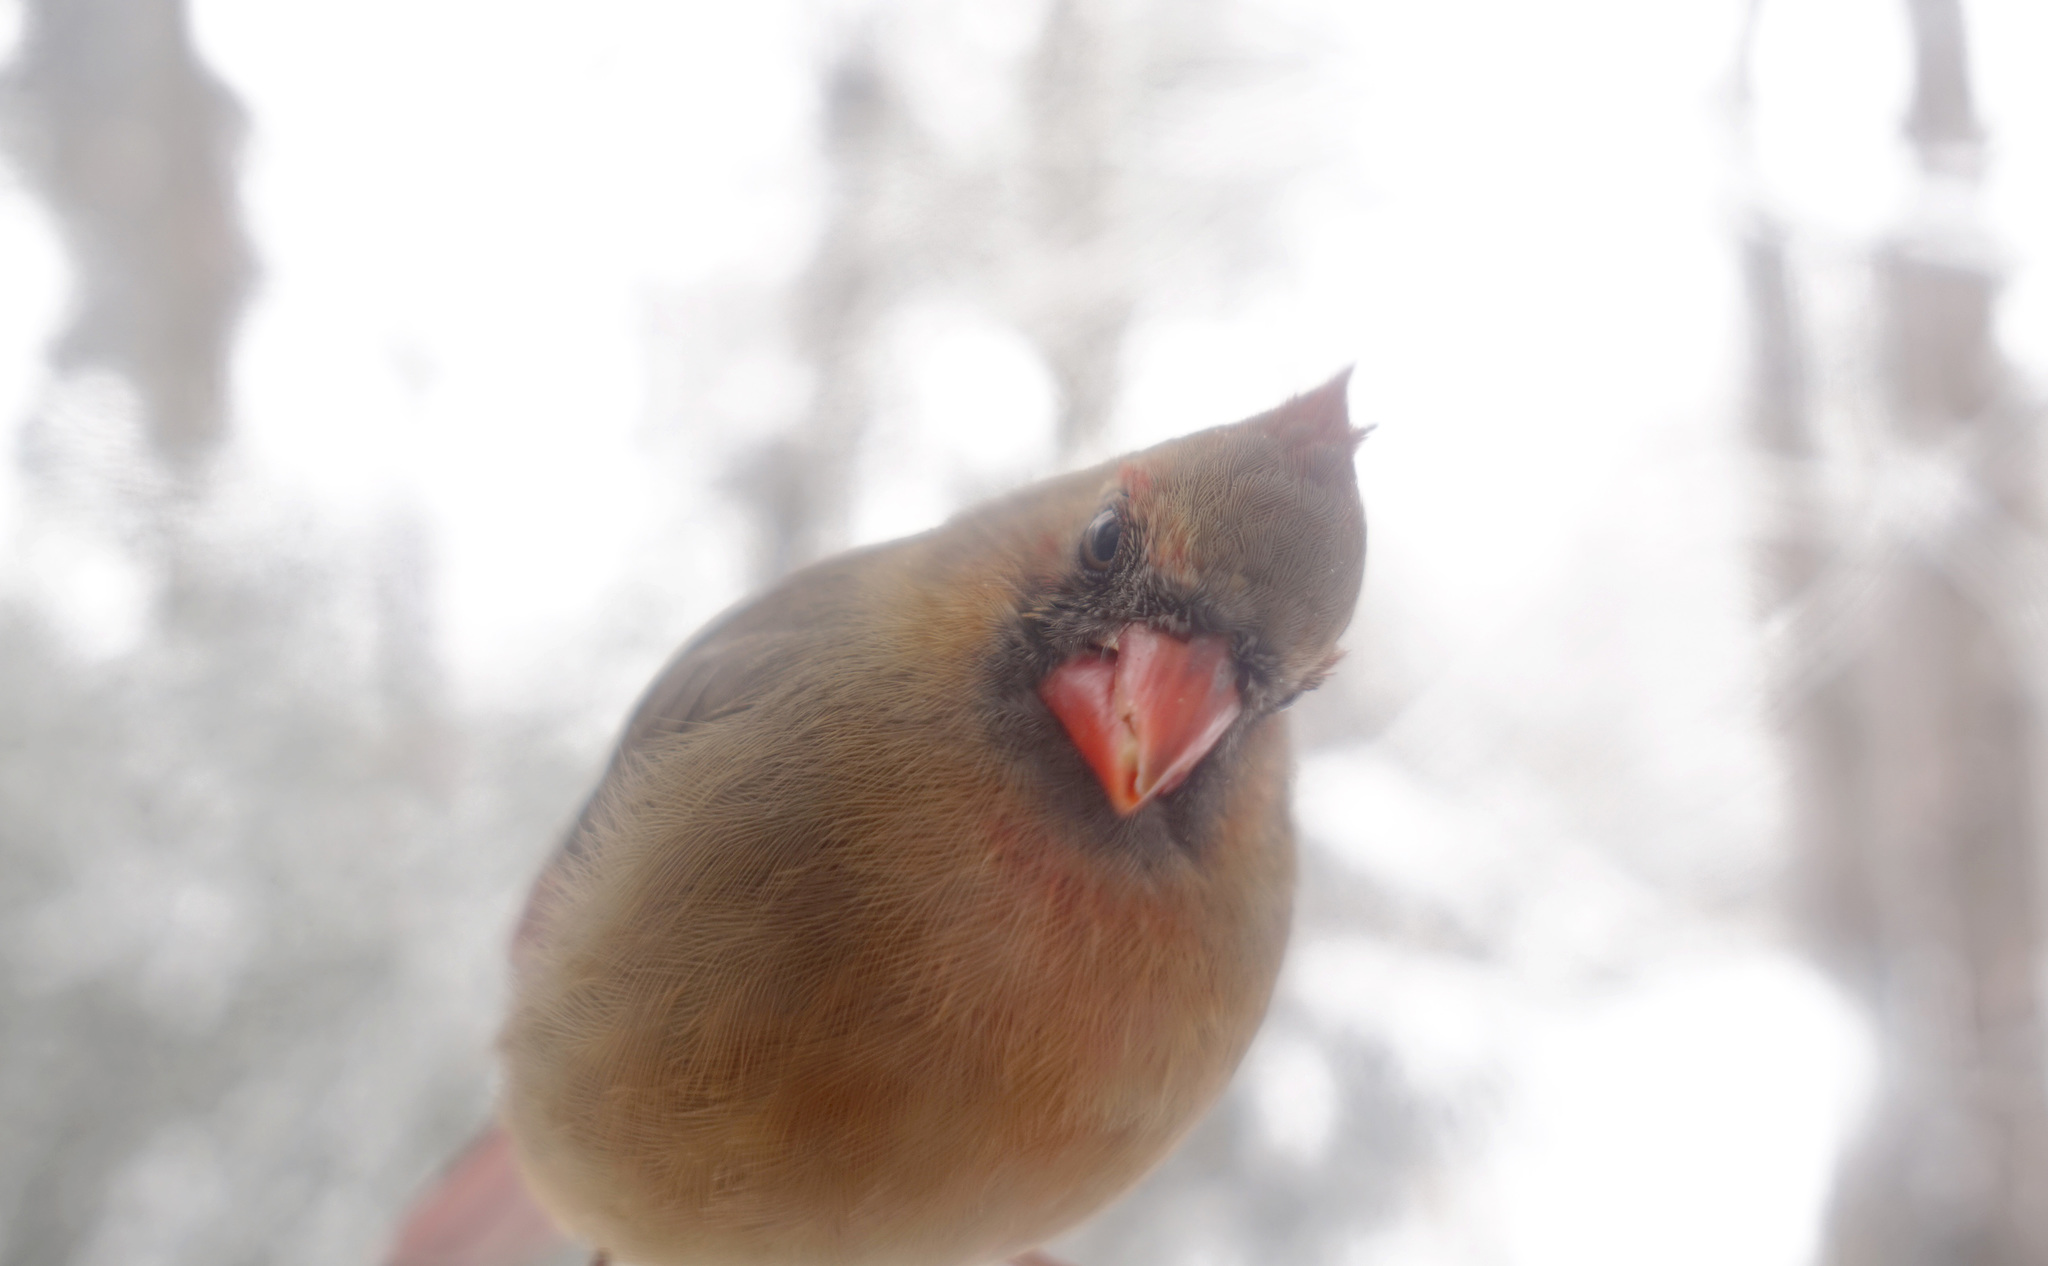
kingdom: Animalia
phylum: Chordata
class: Aves
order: Passeriformes
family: Cardinalidae
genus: Cardinalis
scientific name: Cardinalis cardinalis
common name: Northern cardinal
